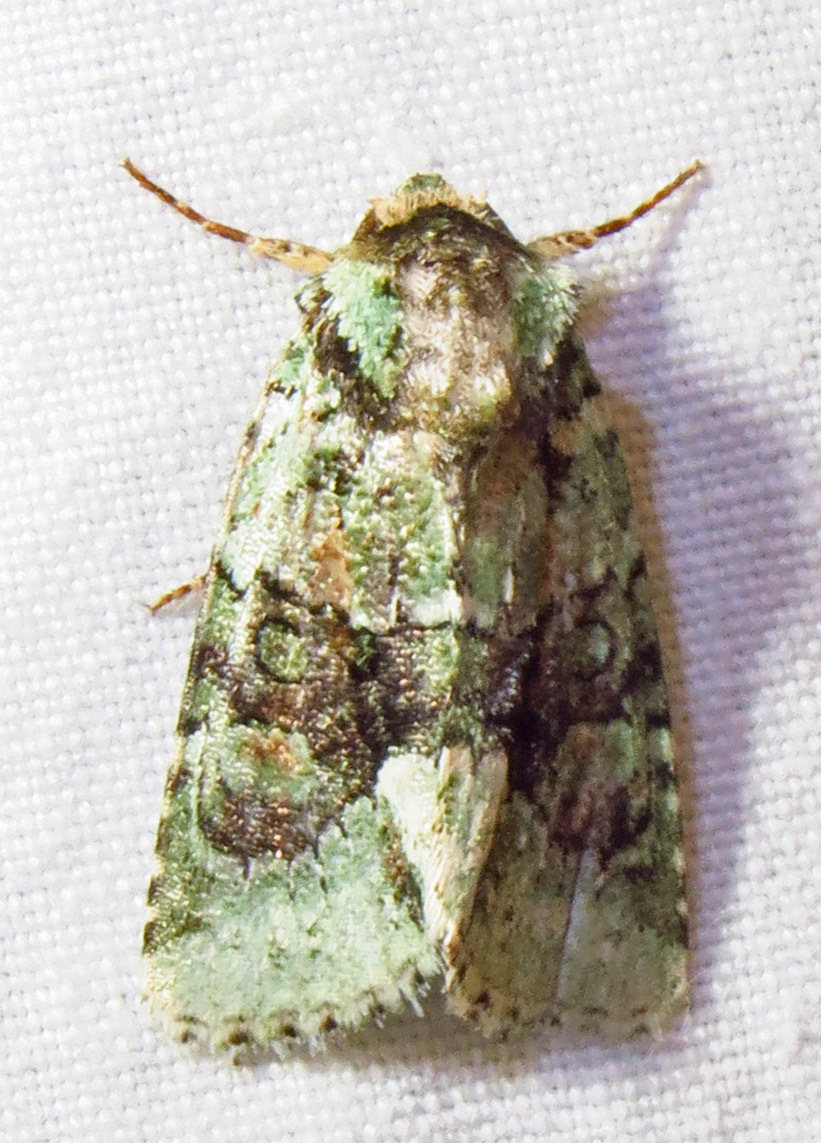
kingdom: Animalia
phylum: Arthropoda
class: Insecta
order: Lepidoptera
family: Noctuidae
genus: Lacinipolia
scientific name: Lacinipolia explicata
